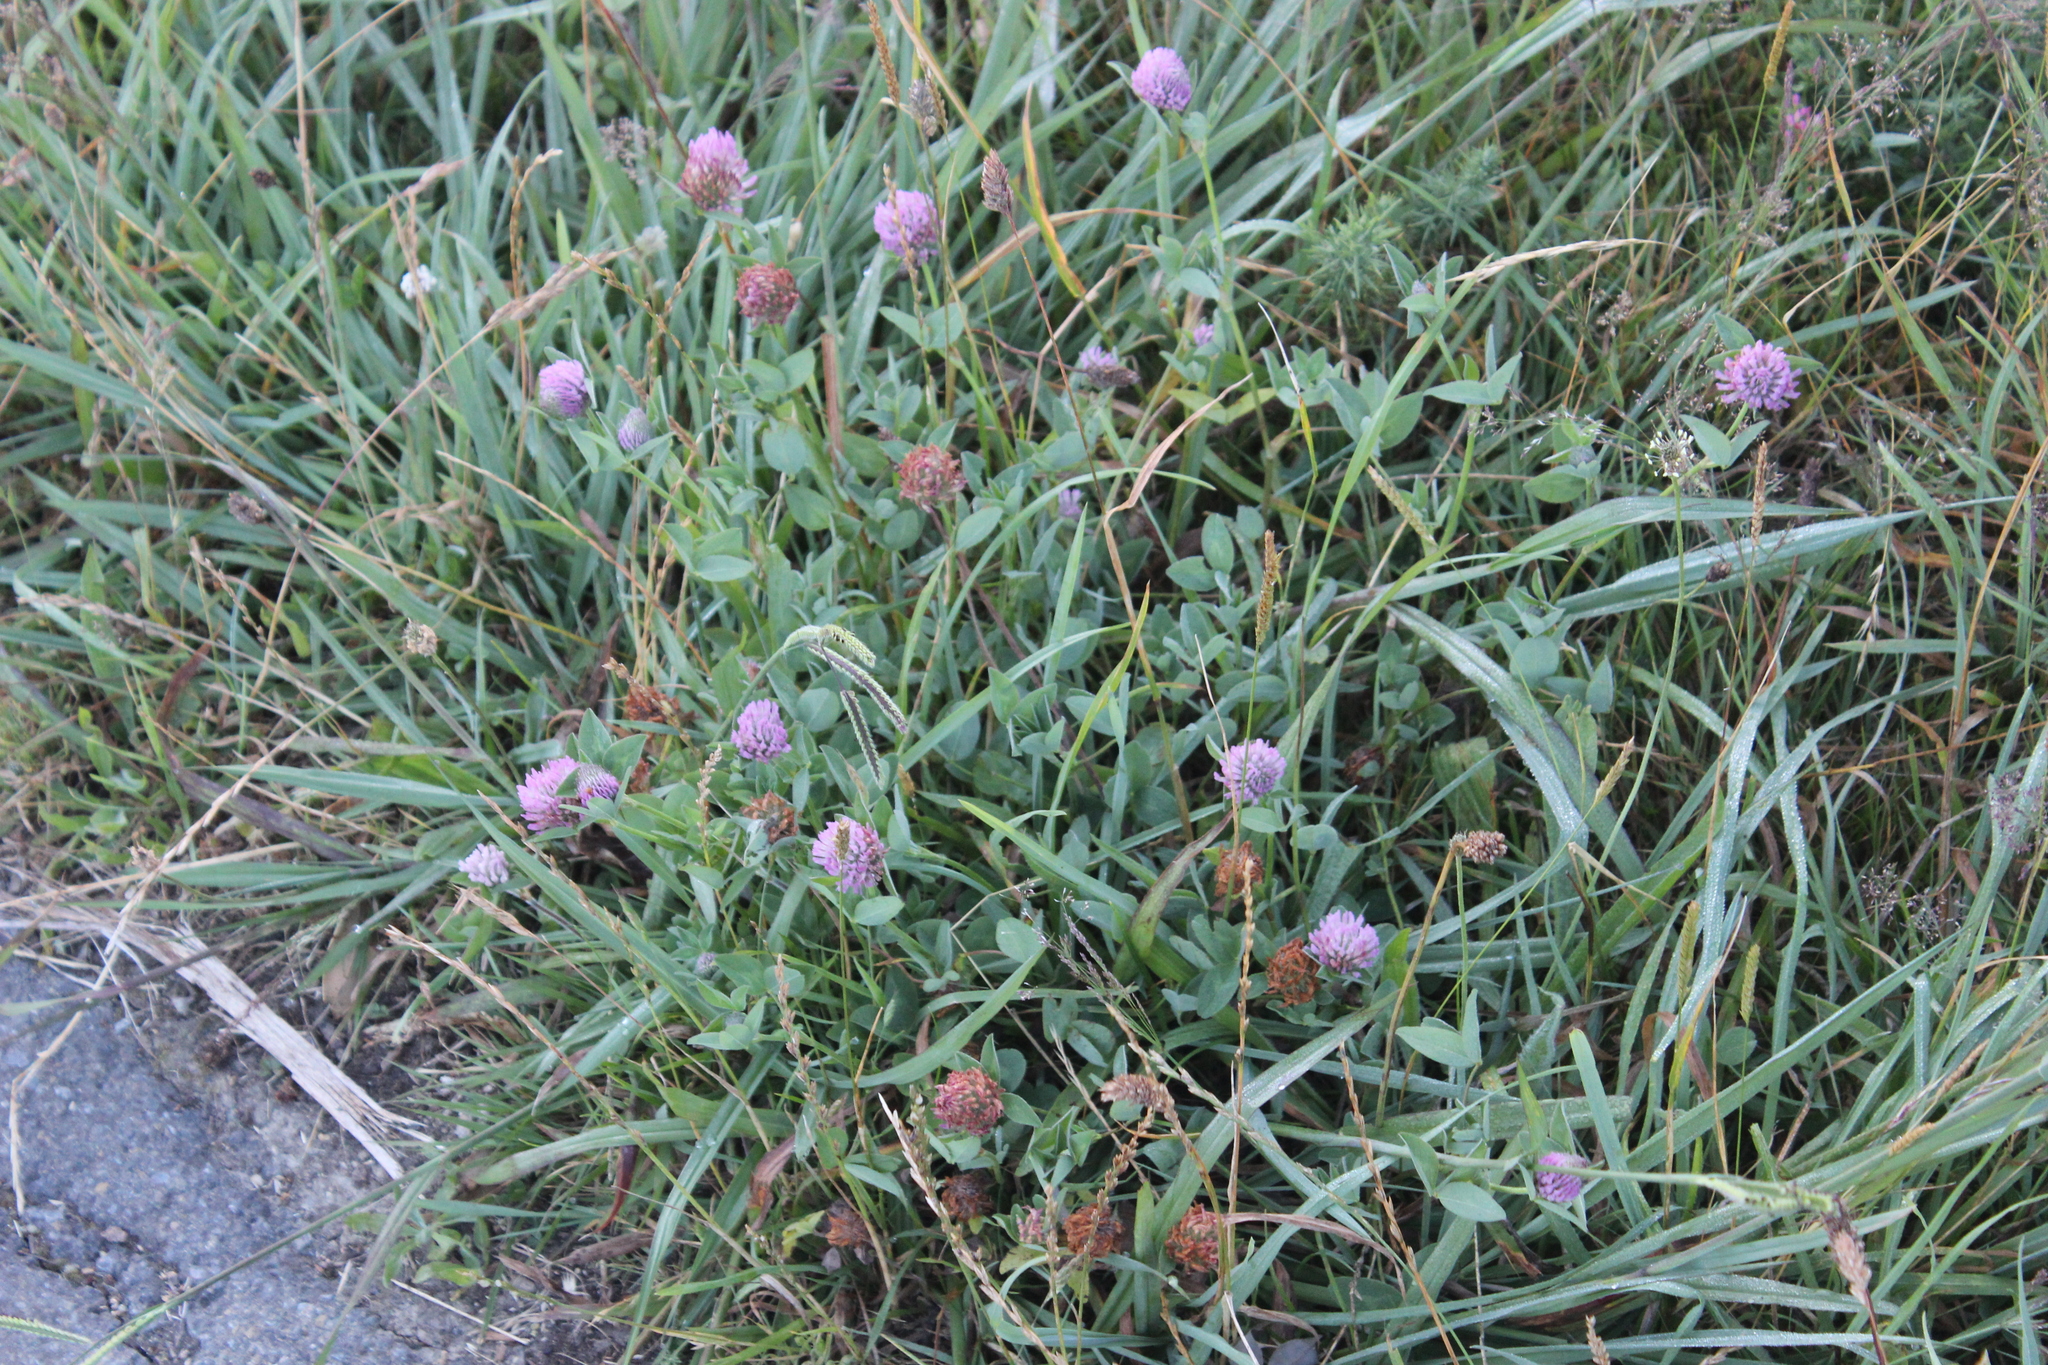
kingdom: Plantae
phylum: Tracheophyta
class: Magnoliopsida
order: Fabales
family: Fabaceae
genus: Trifolium
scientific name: Trifolium pratense
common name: Red clover
